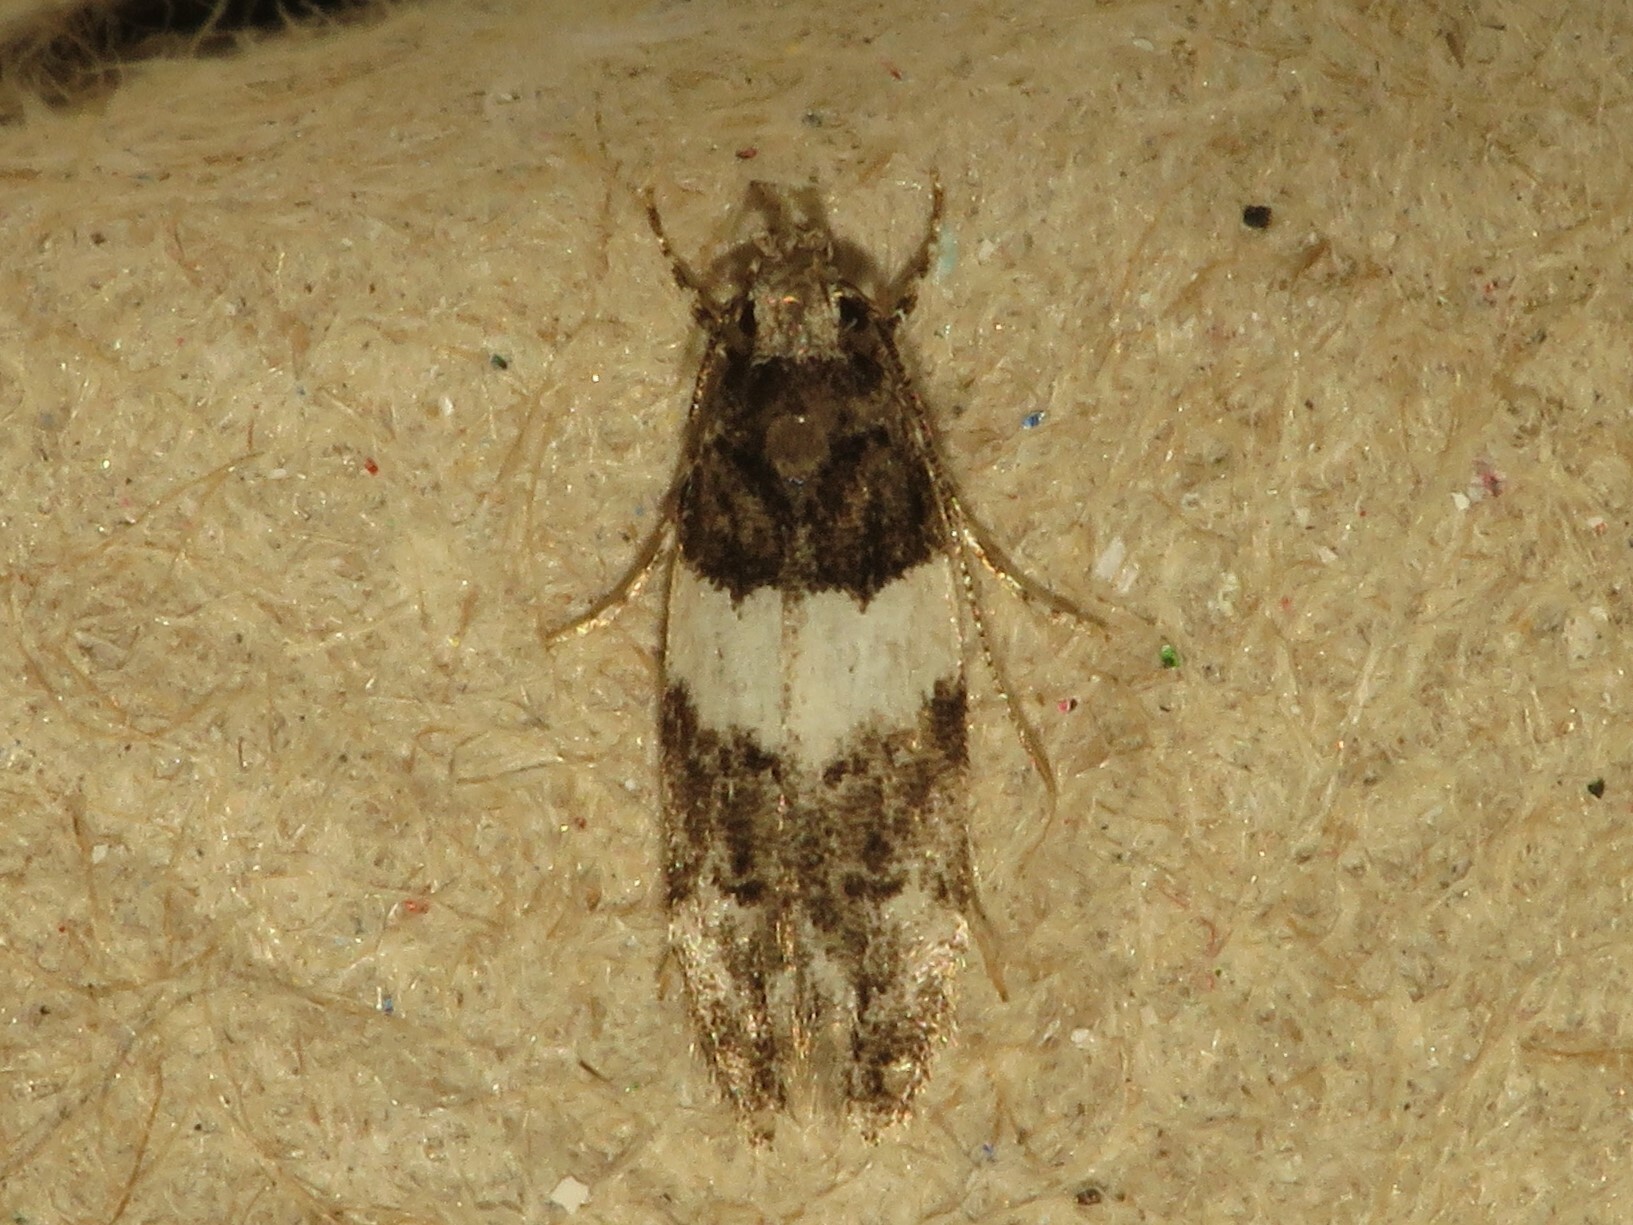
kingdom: Animalia
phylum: Arthropoda
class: Insecta
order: Lepidoptera
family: Gelechiidae
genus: Pubitelphusa
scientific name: Pubitelphusa latifasciella
